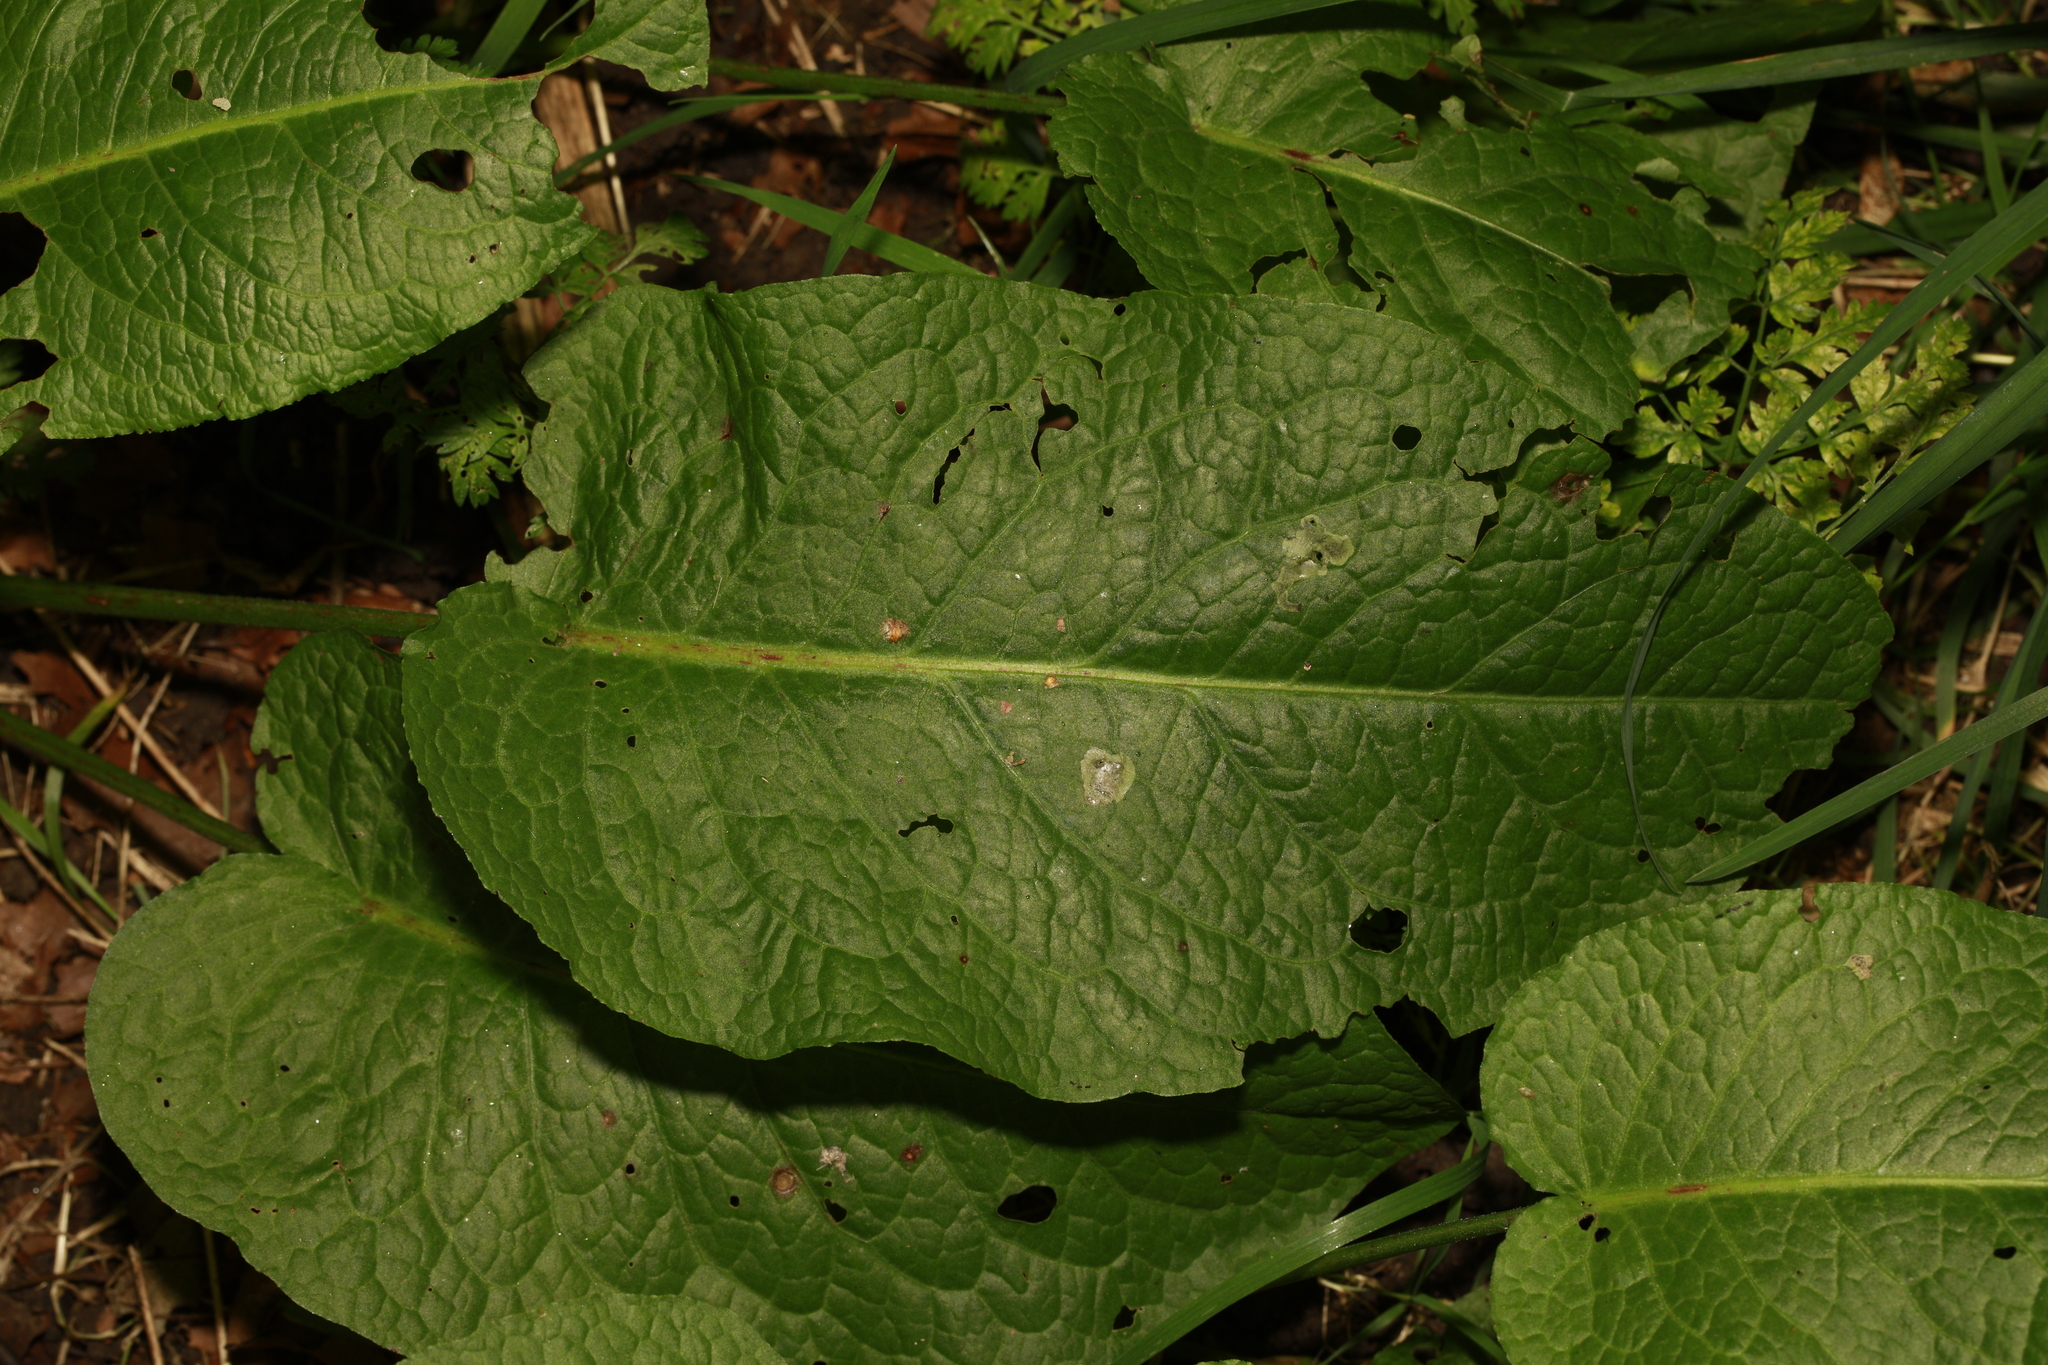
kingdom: Plantae
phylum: Tracheophyta
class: Magnoliopsida
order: Caryophyllales
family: Polygonaceae
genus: Rumex
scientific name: Rumex obtusifolius
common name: Bitter dock
